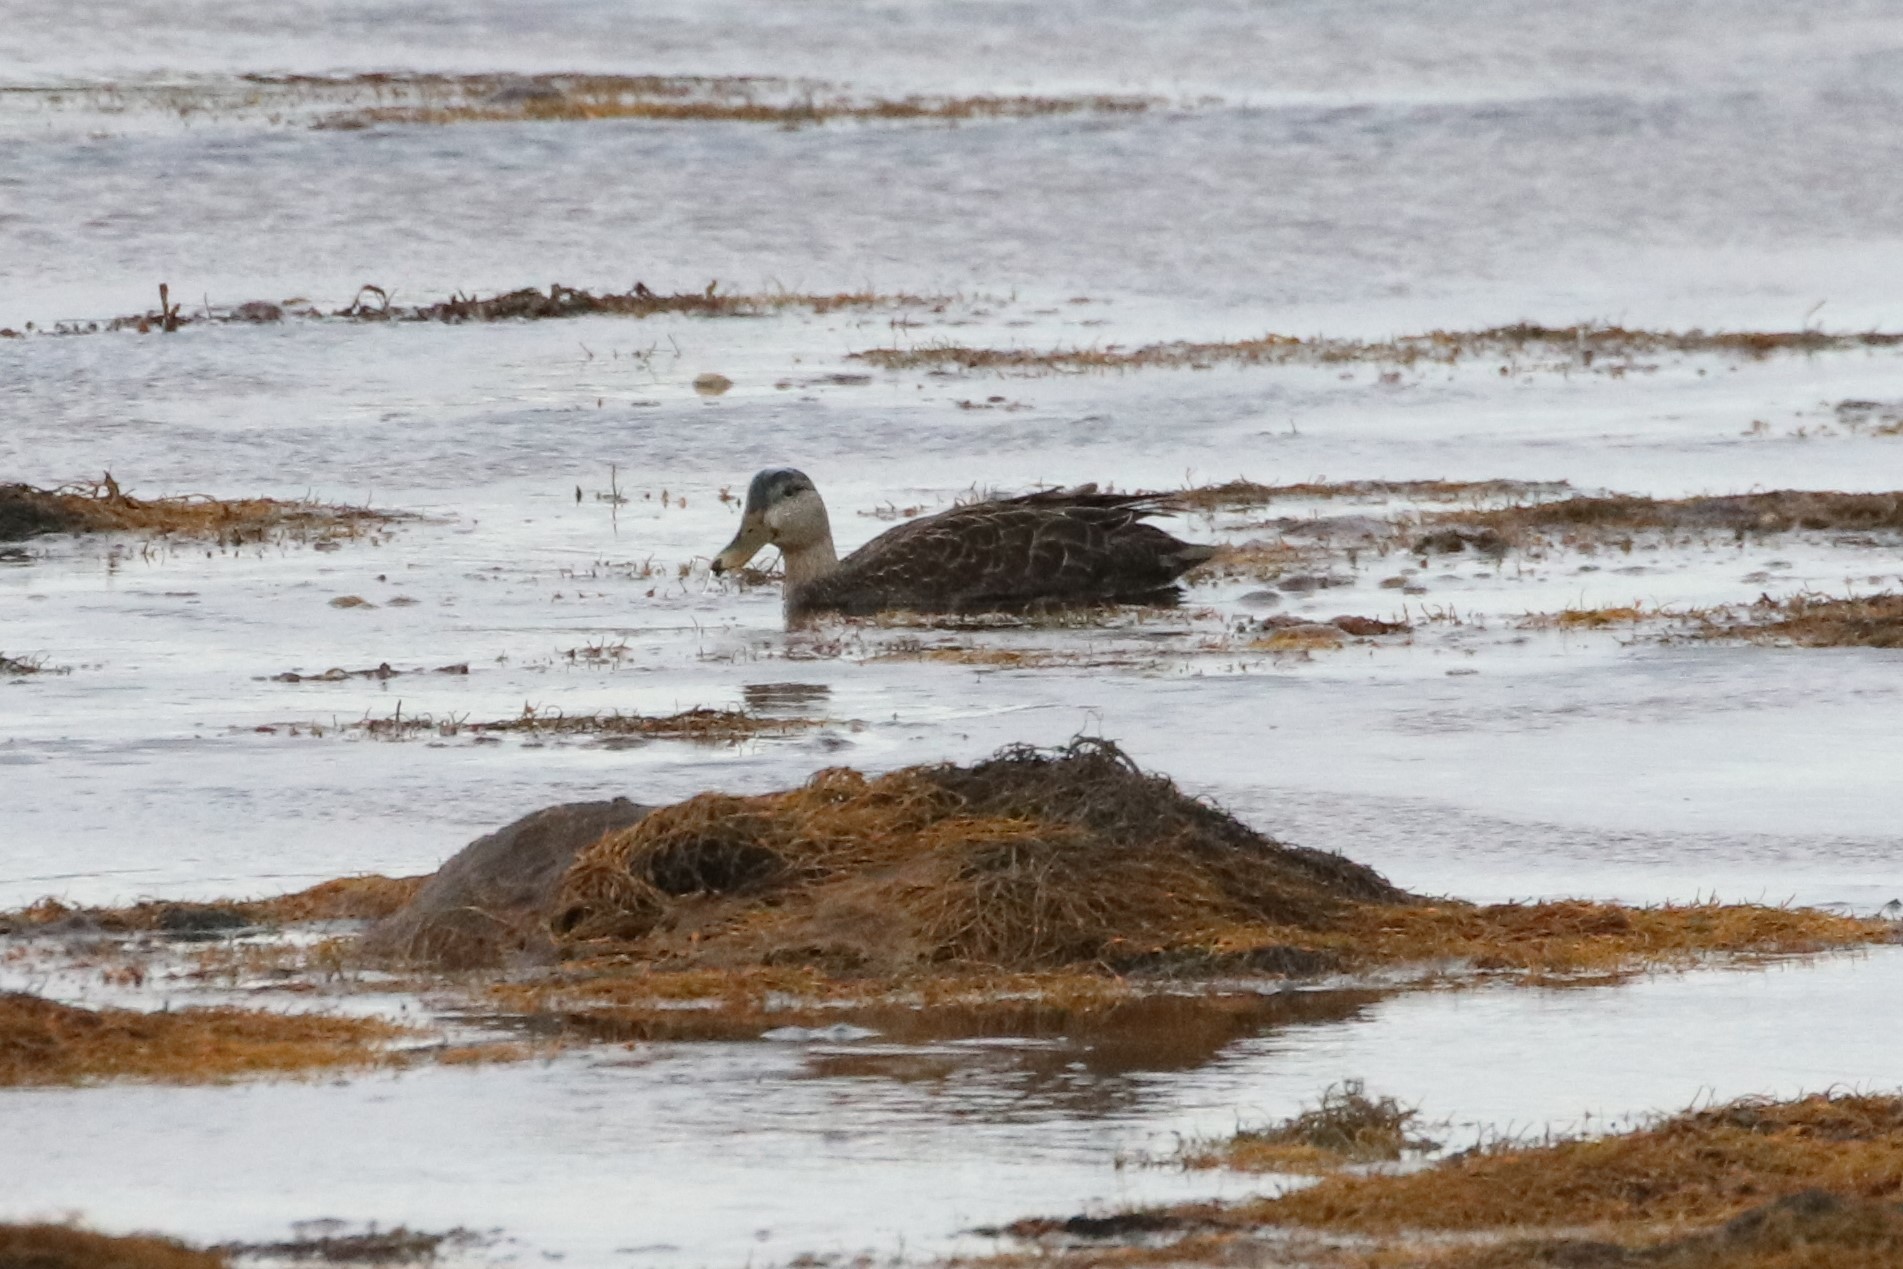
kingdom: Animalia
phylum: Chordata
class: Aves
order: Anseriformes
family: Anatidae
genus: Anas
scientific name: Anas rubripes
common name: American black duck
